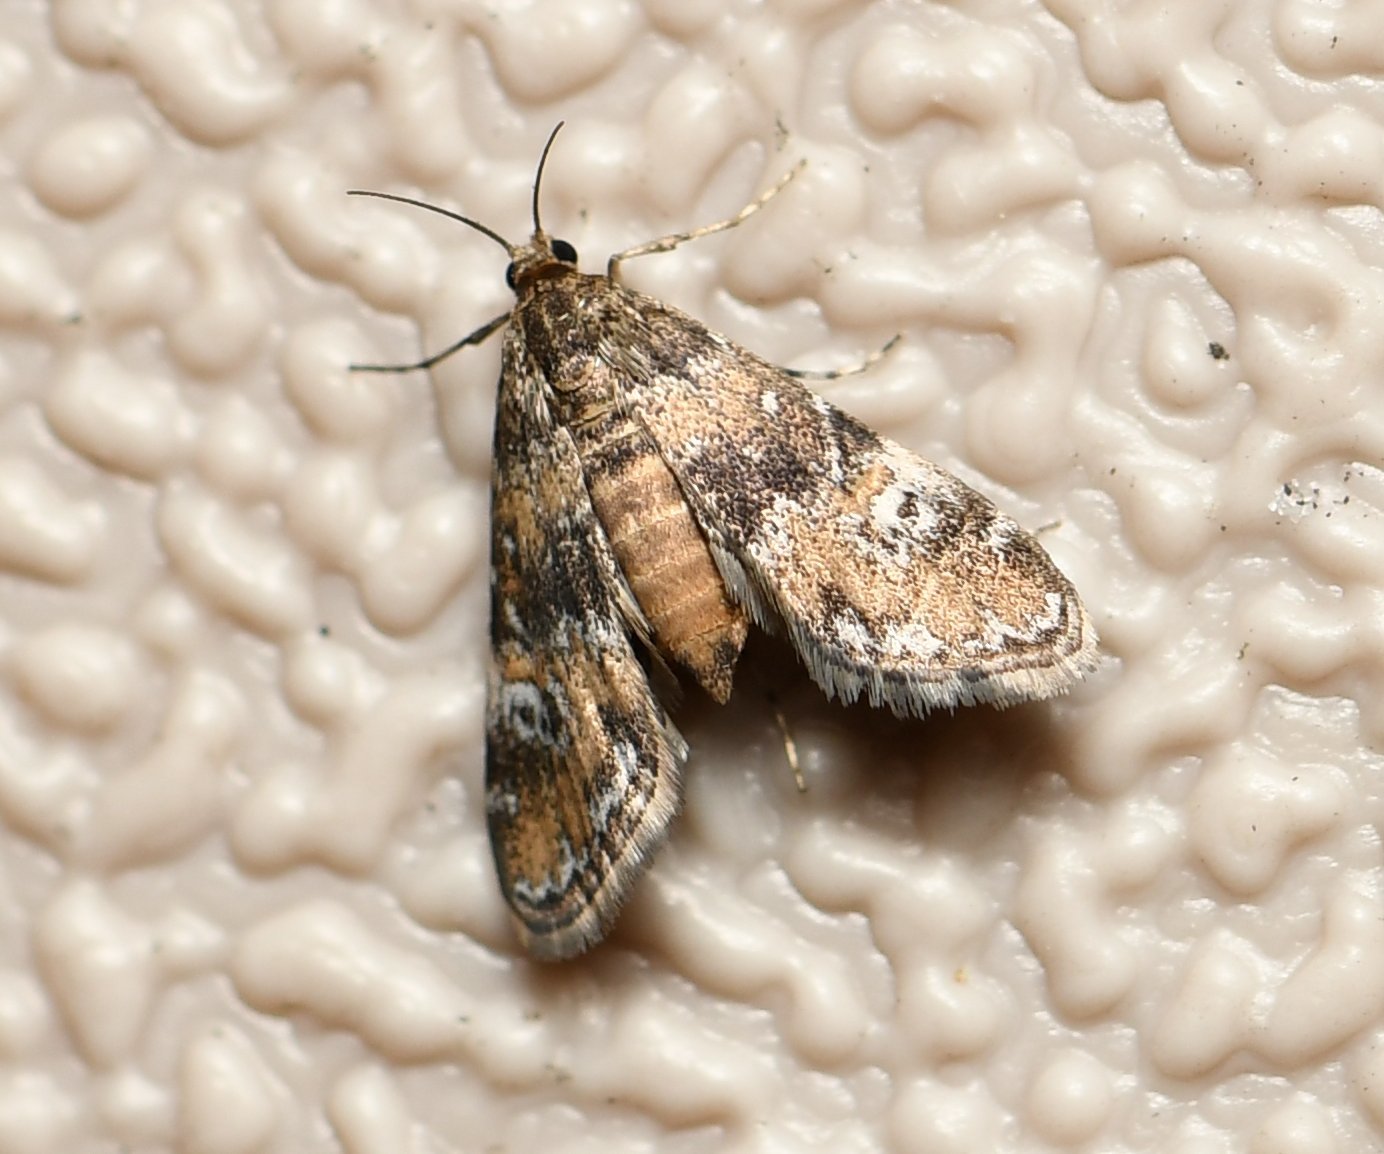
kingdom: Animalia
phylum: Arthropoda
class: Insecta
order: Lepidoptera
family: Crambidae
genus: Elophila
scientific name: Elophila obliteralis
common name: Waterlily leafcutter moth
